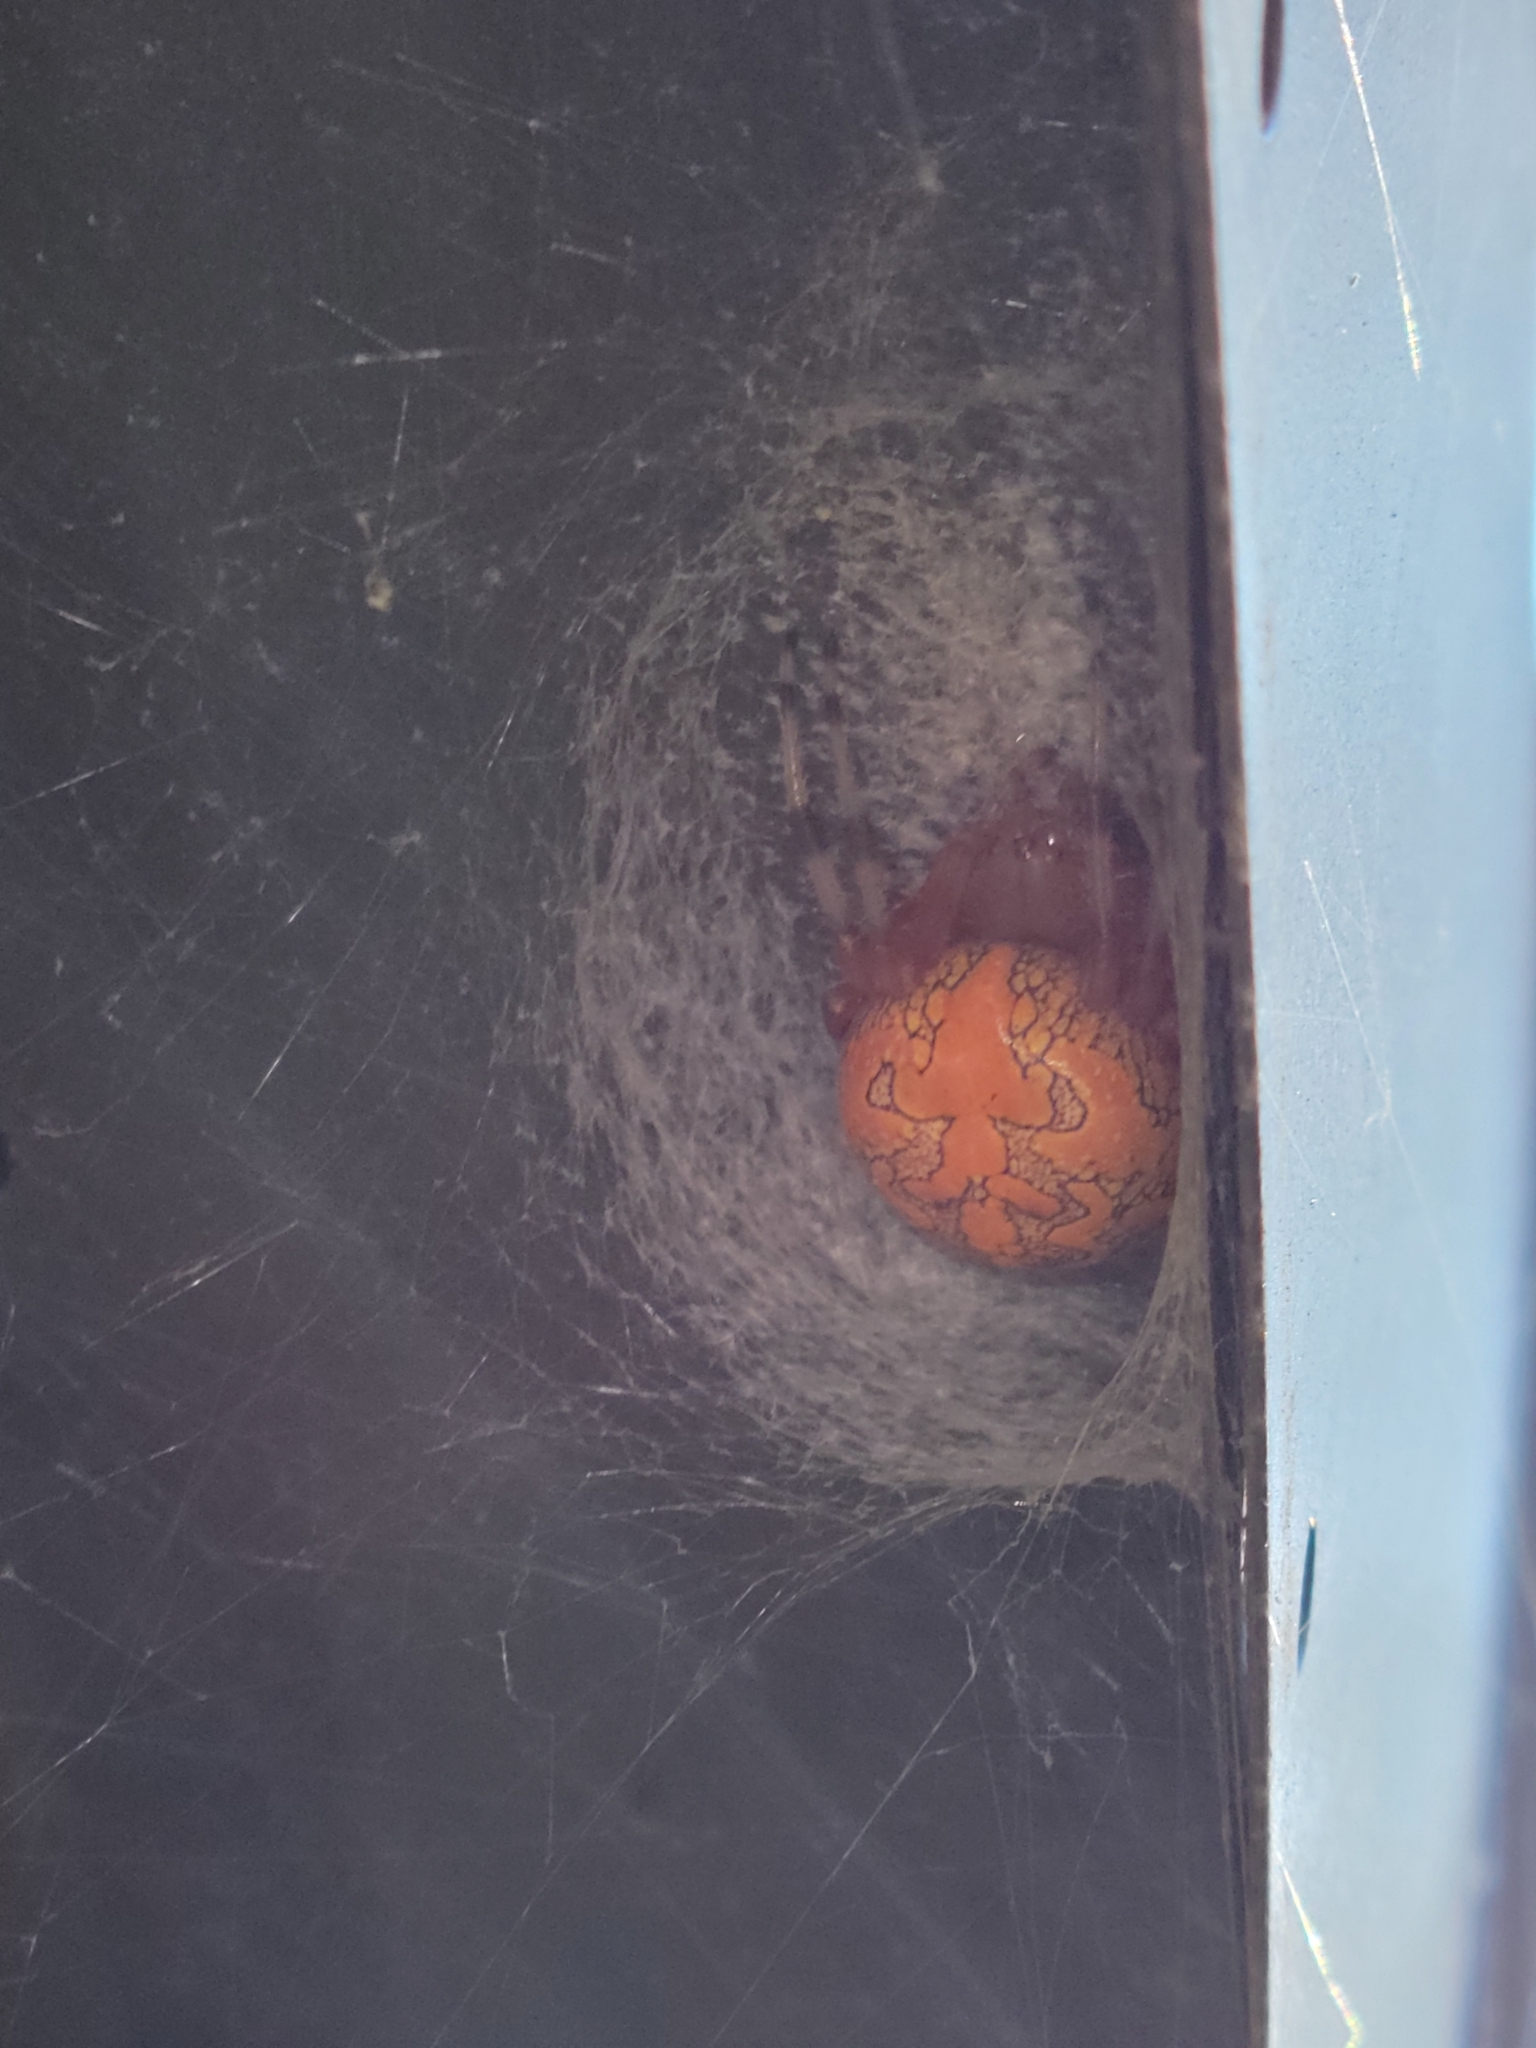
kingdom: Animalia
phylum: Arthropoda
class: Arachnida
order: Araneae
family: Araneidae
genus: Araneus
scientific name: Araneus marmoreus
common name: Marbled orbweaver
